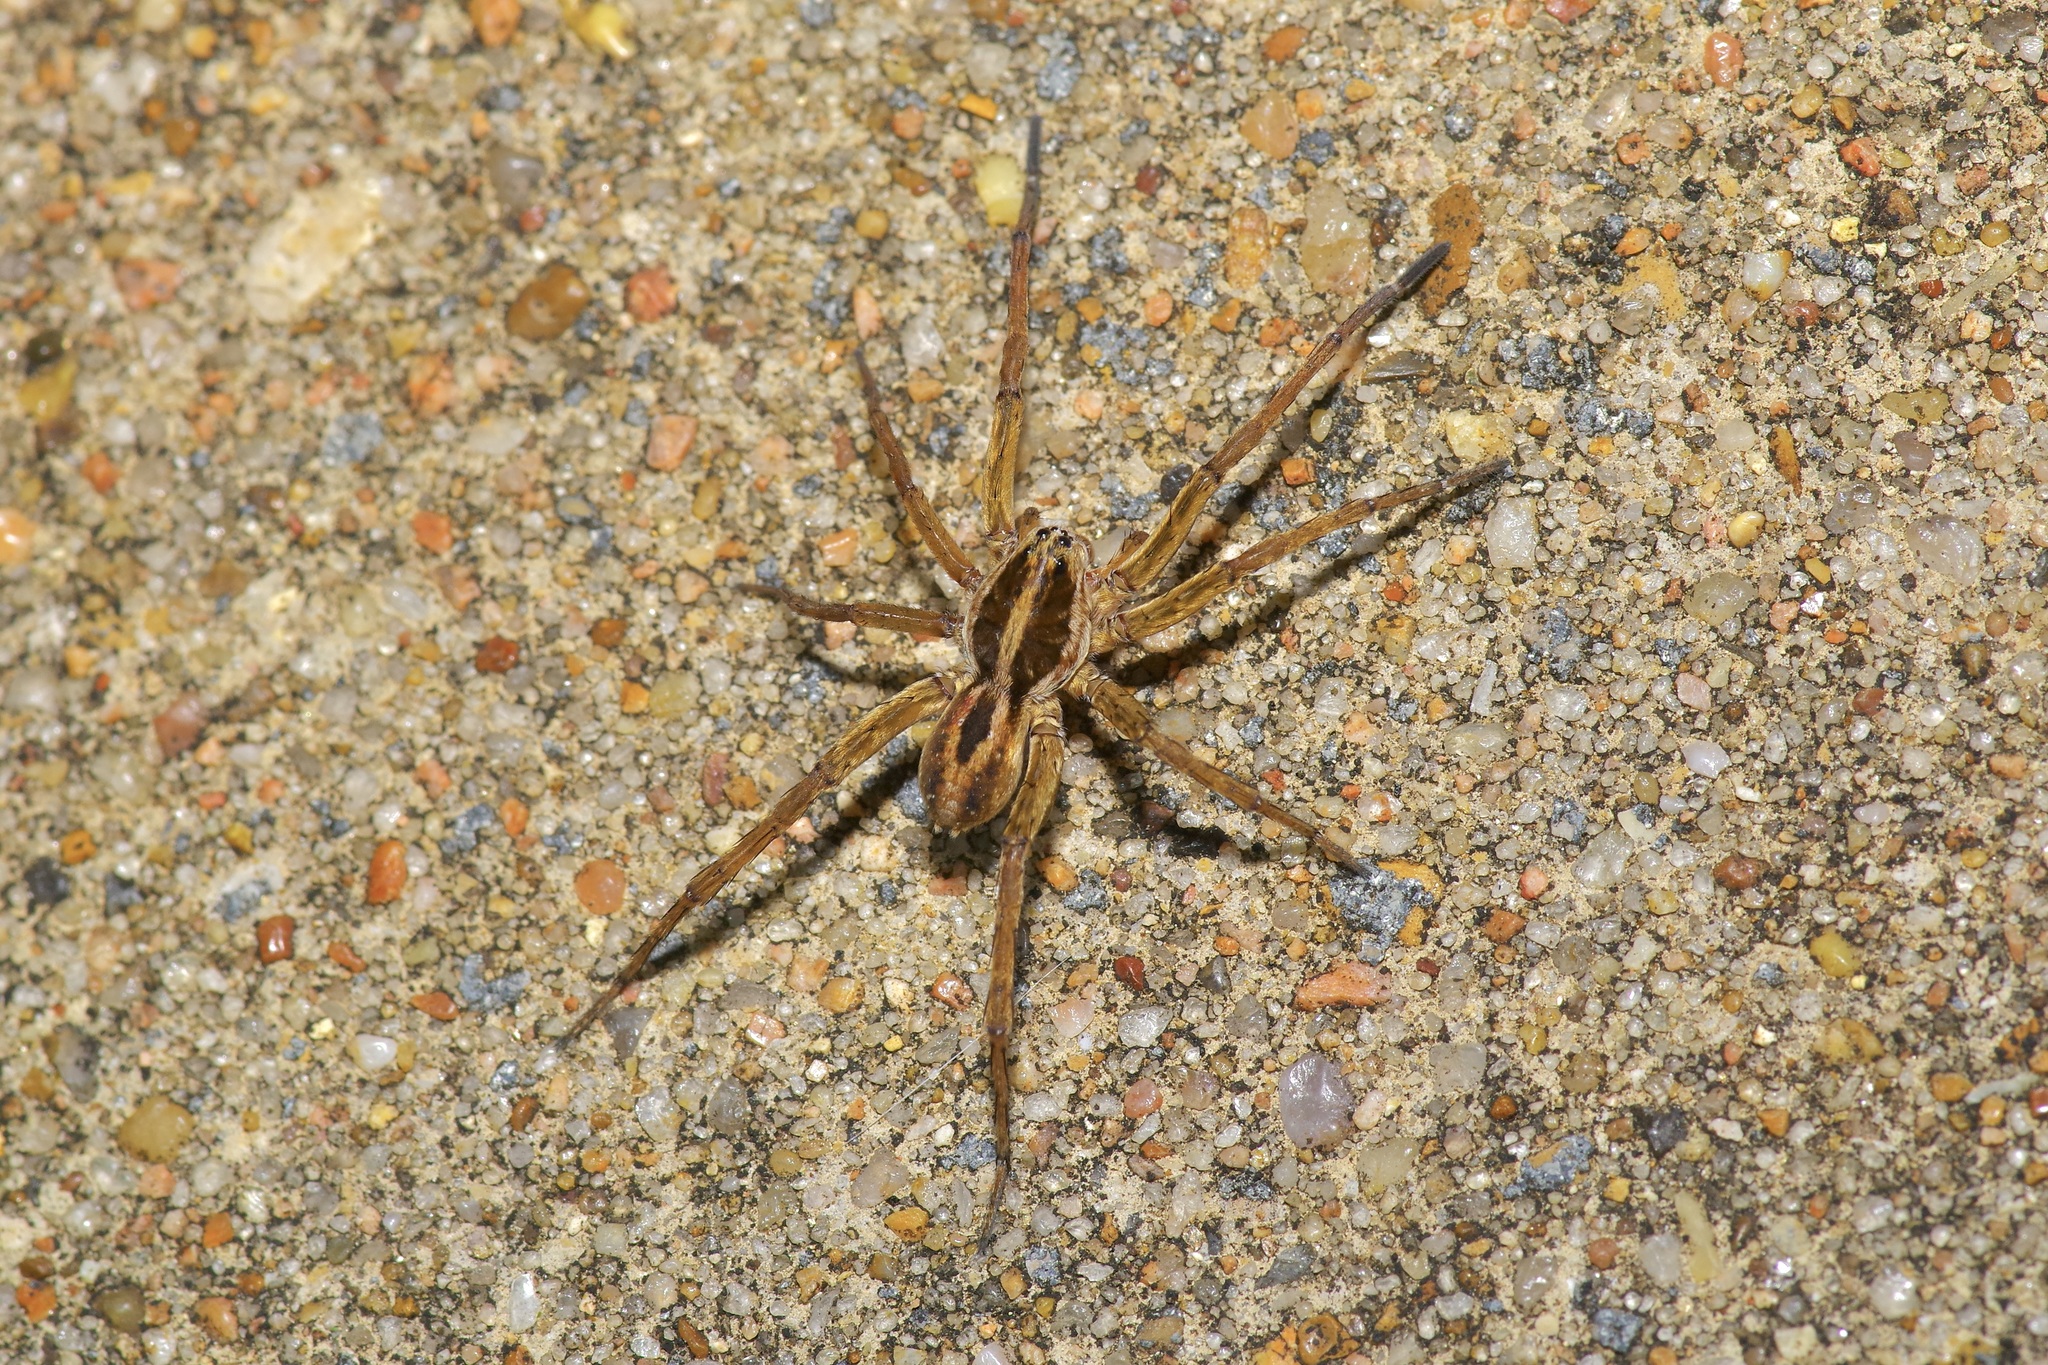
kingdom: Animalia
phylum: Arthropoda
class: Arachnida
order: Araneae
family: Lycosidae
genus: Tigrosa
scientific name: Tigrosa annexa
